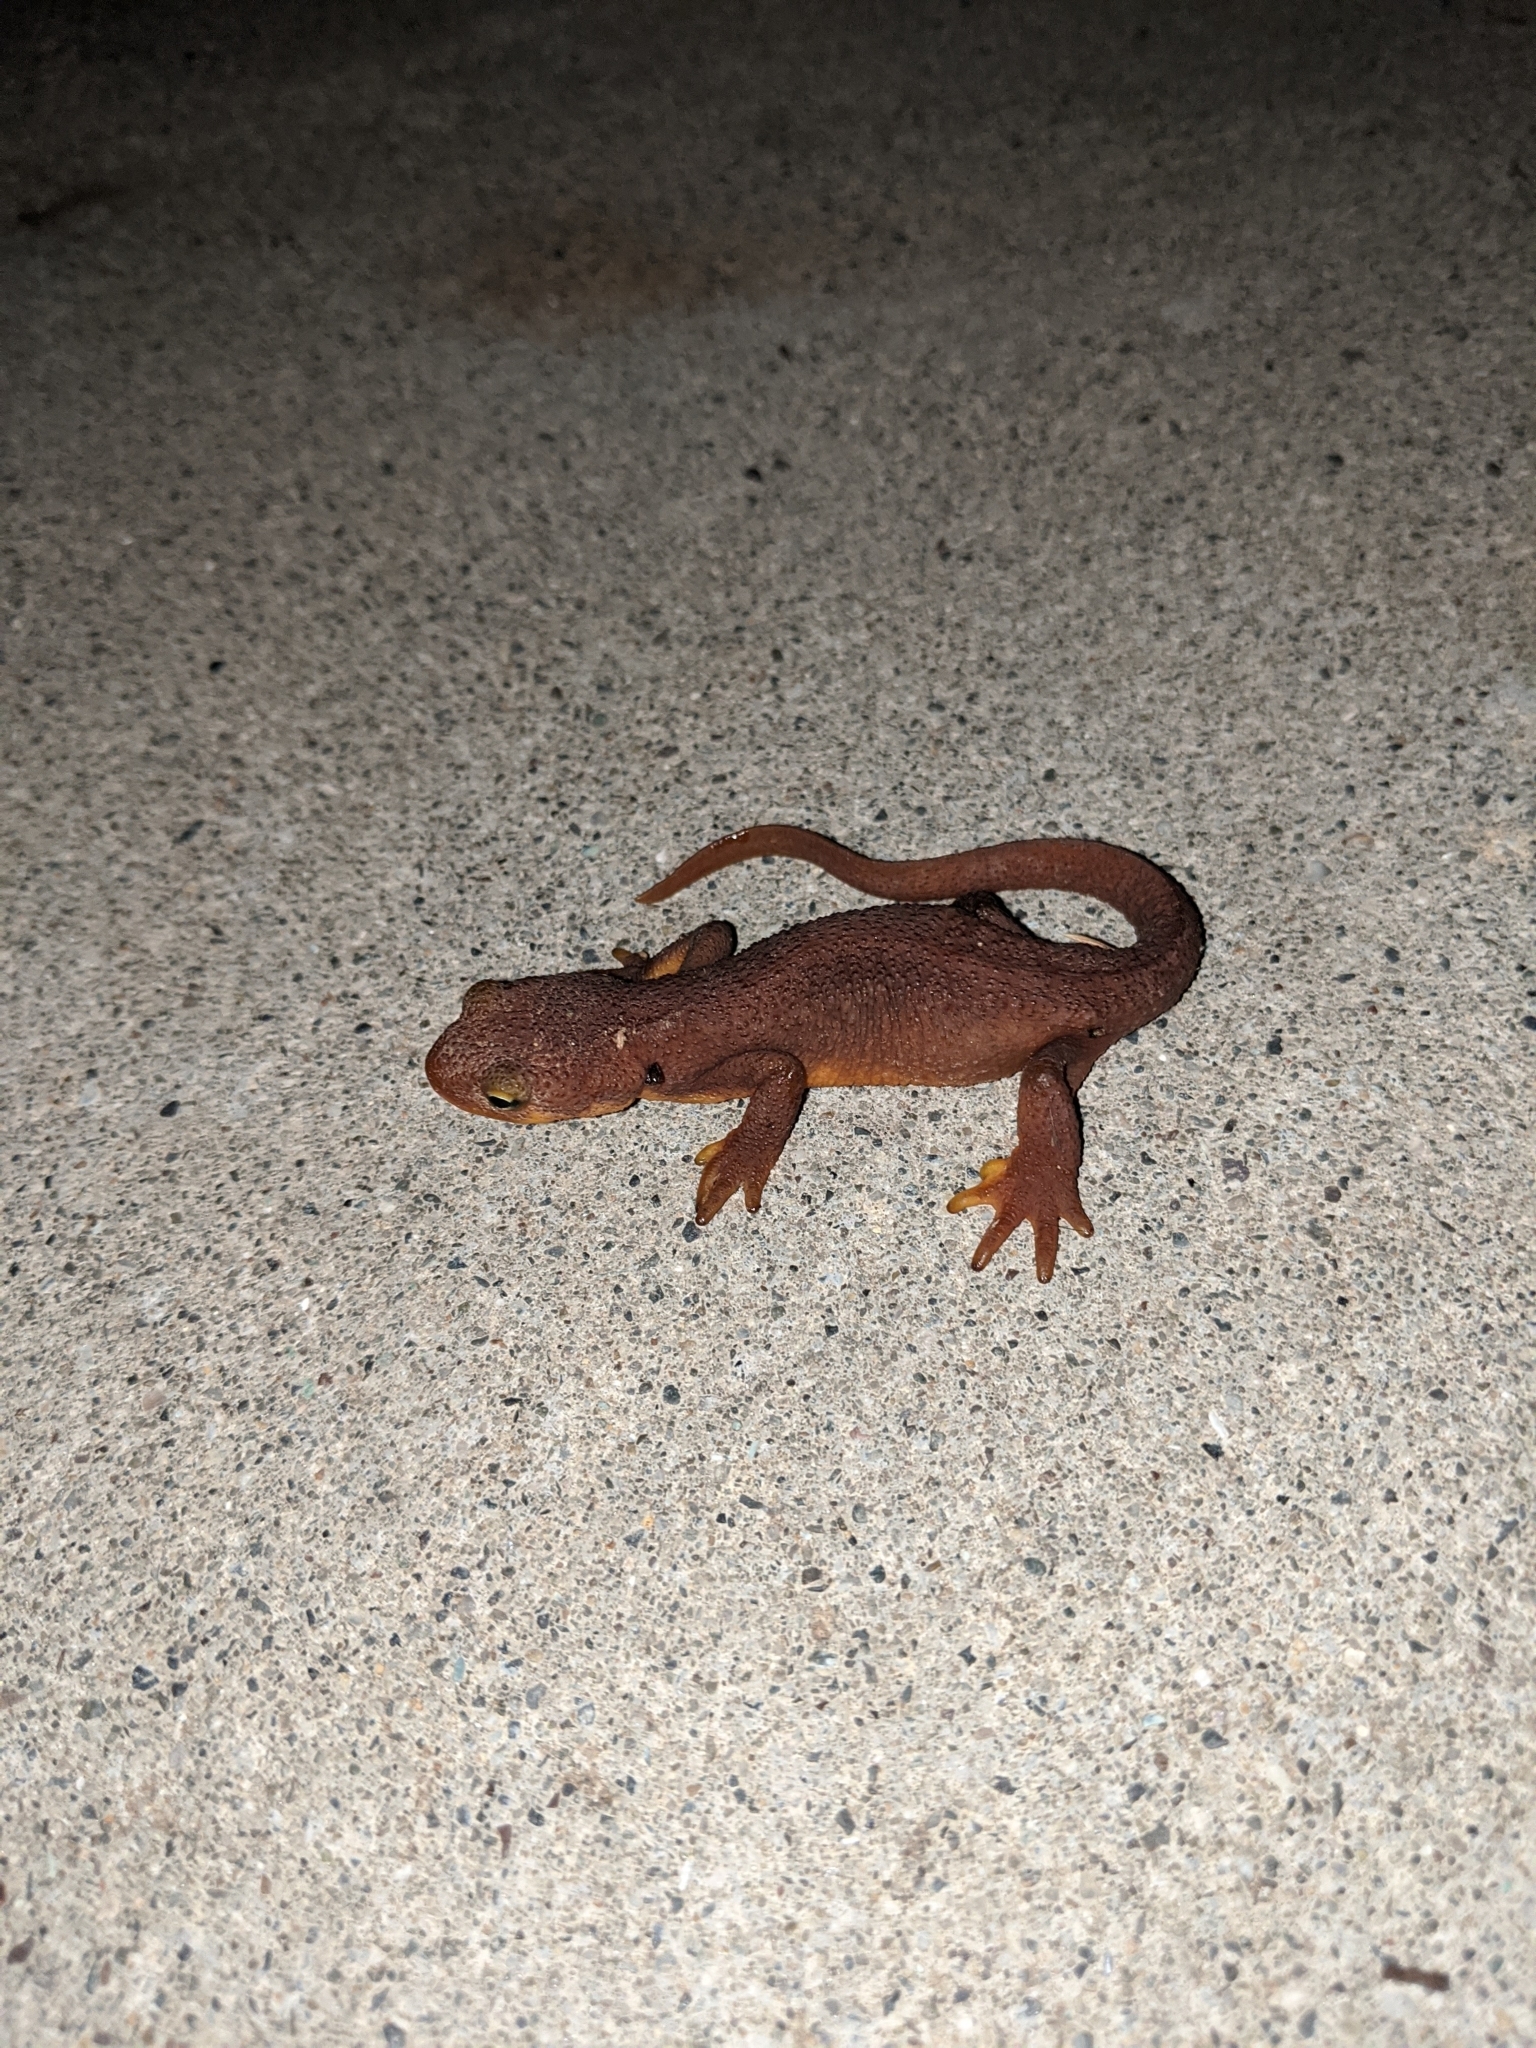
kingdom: Animalia
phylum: Chordata
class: Amphibia
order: Caudata
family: Salamandridae
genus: Taricha
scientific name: Taricha torosa
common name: California newt
